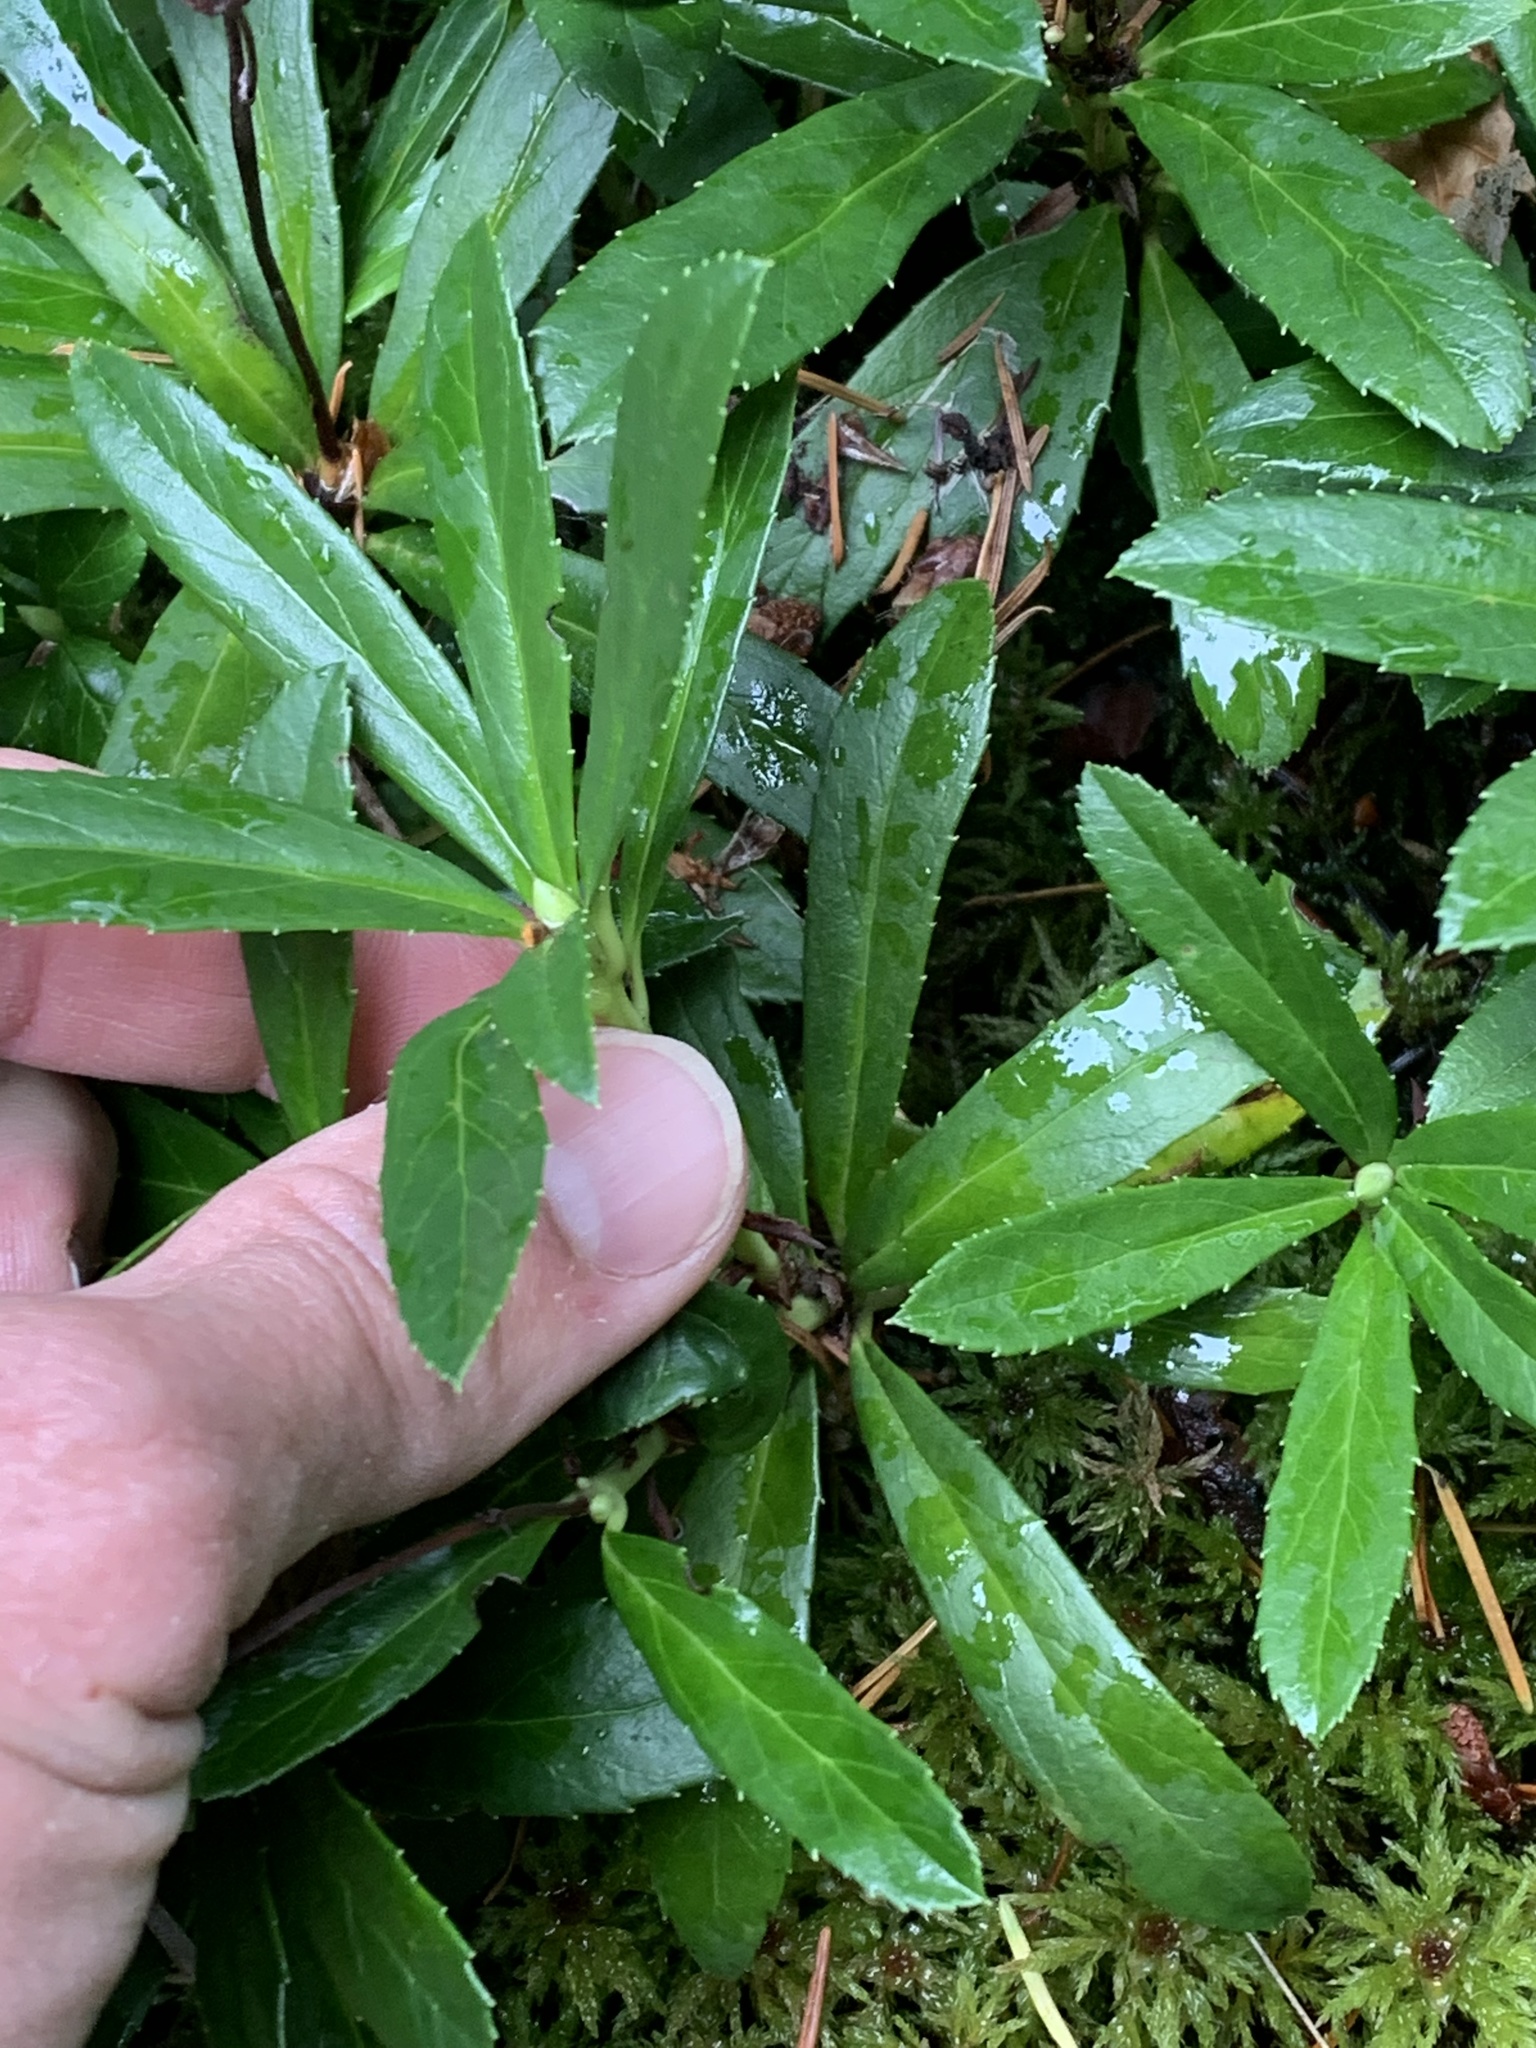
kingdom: Plantae
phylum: Tracheophyta
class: Magnoliopsida
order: Ericales
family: Ericaceae
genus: Chimaphila
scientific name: Chimaphila umbellata
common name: Pipsissewa
